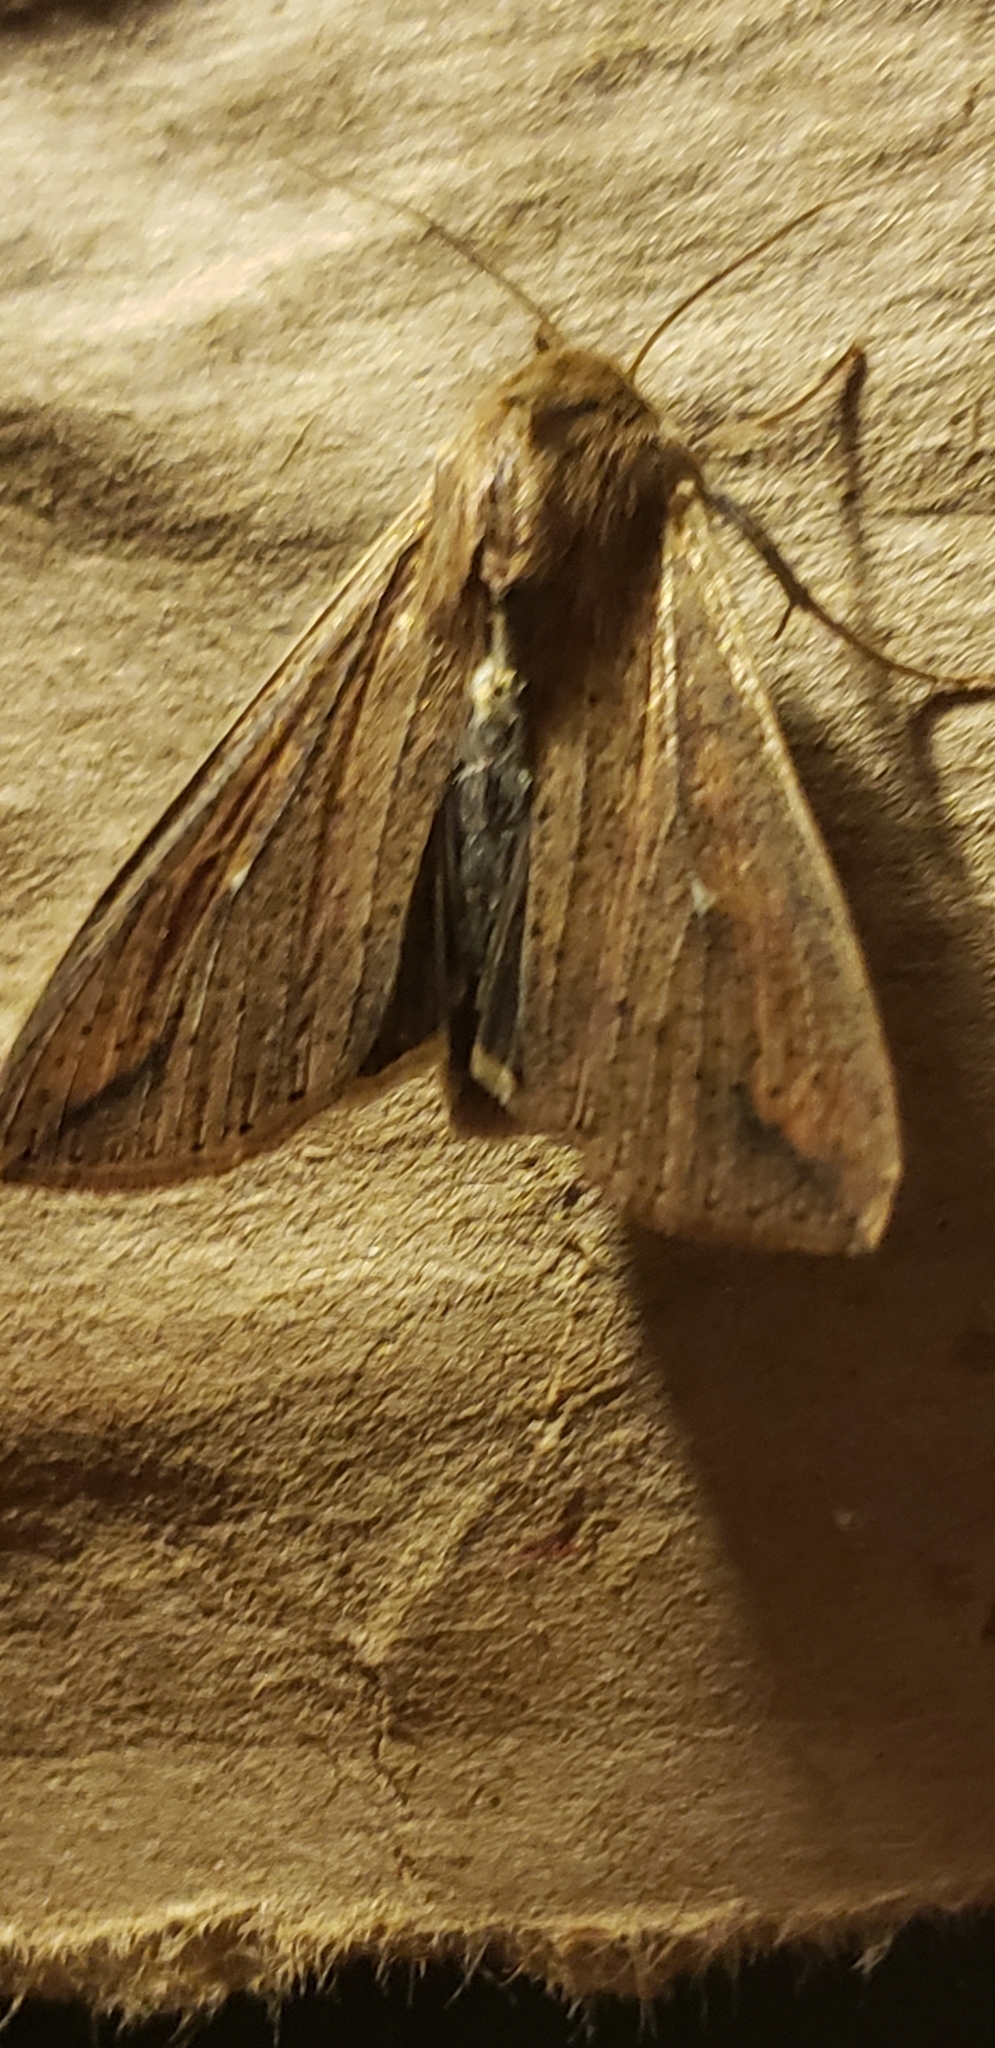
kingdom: Animalia
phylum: Arthropoda
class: Insecta
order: Lepidoptera
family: Noctuidae
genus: Mythimna
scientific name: Mythimna unipuncta
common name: White-speck
